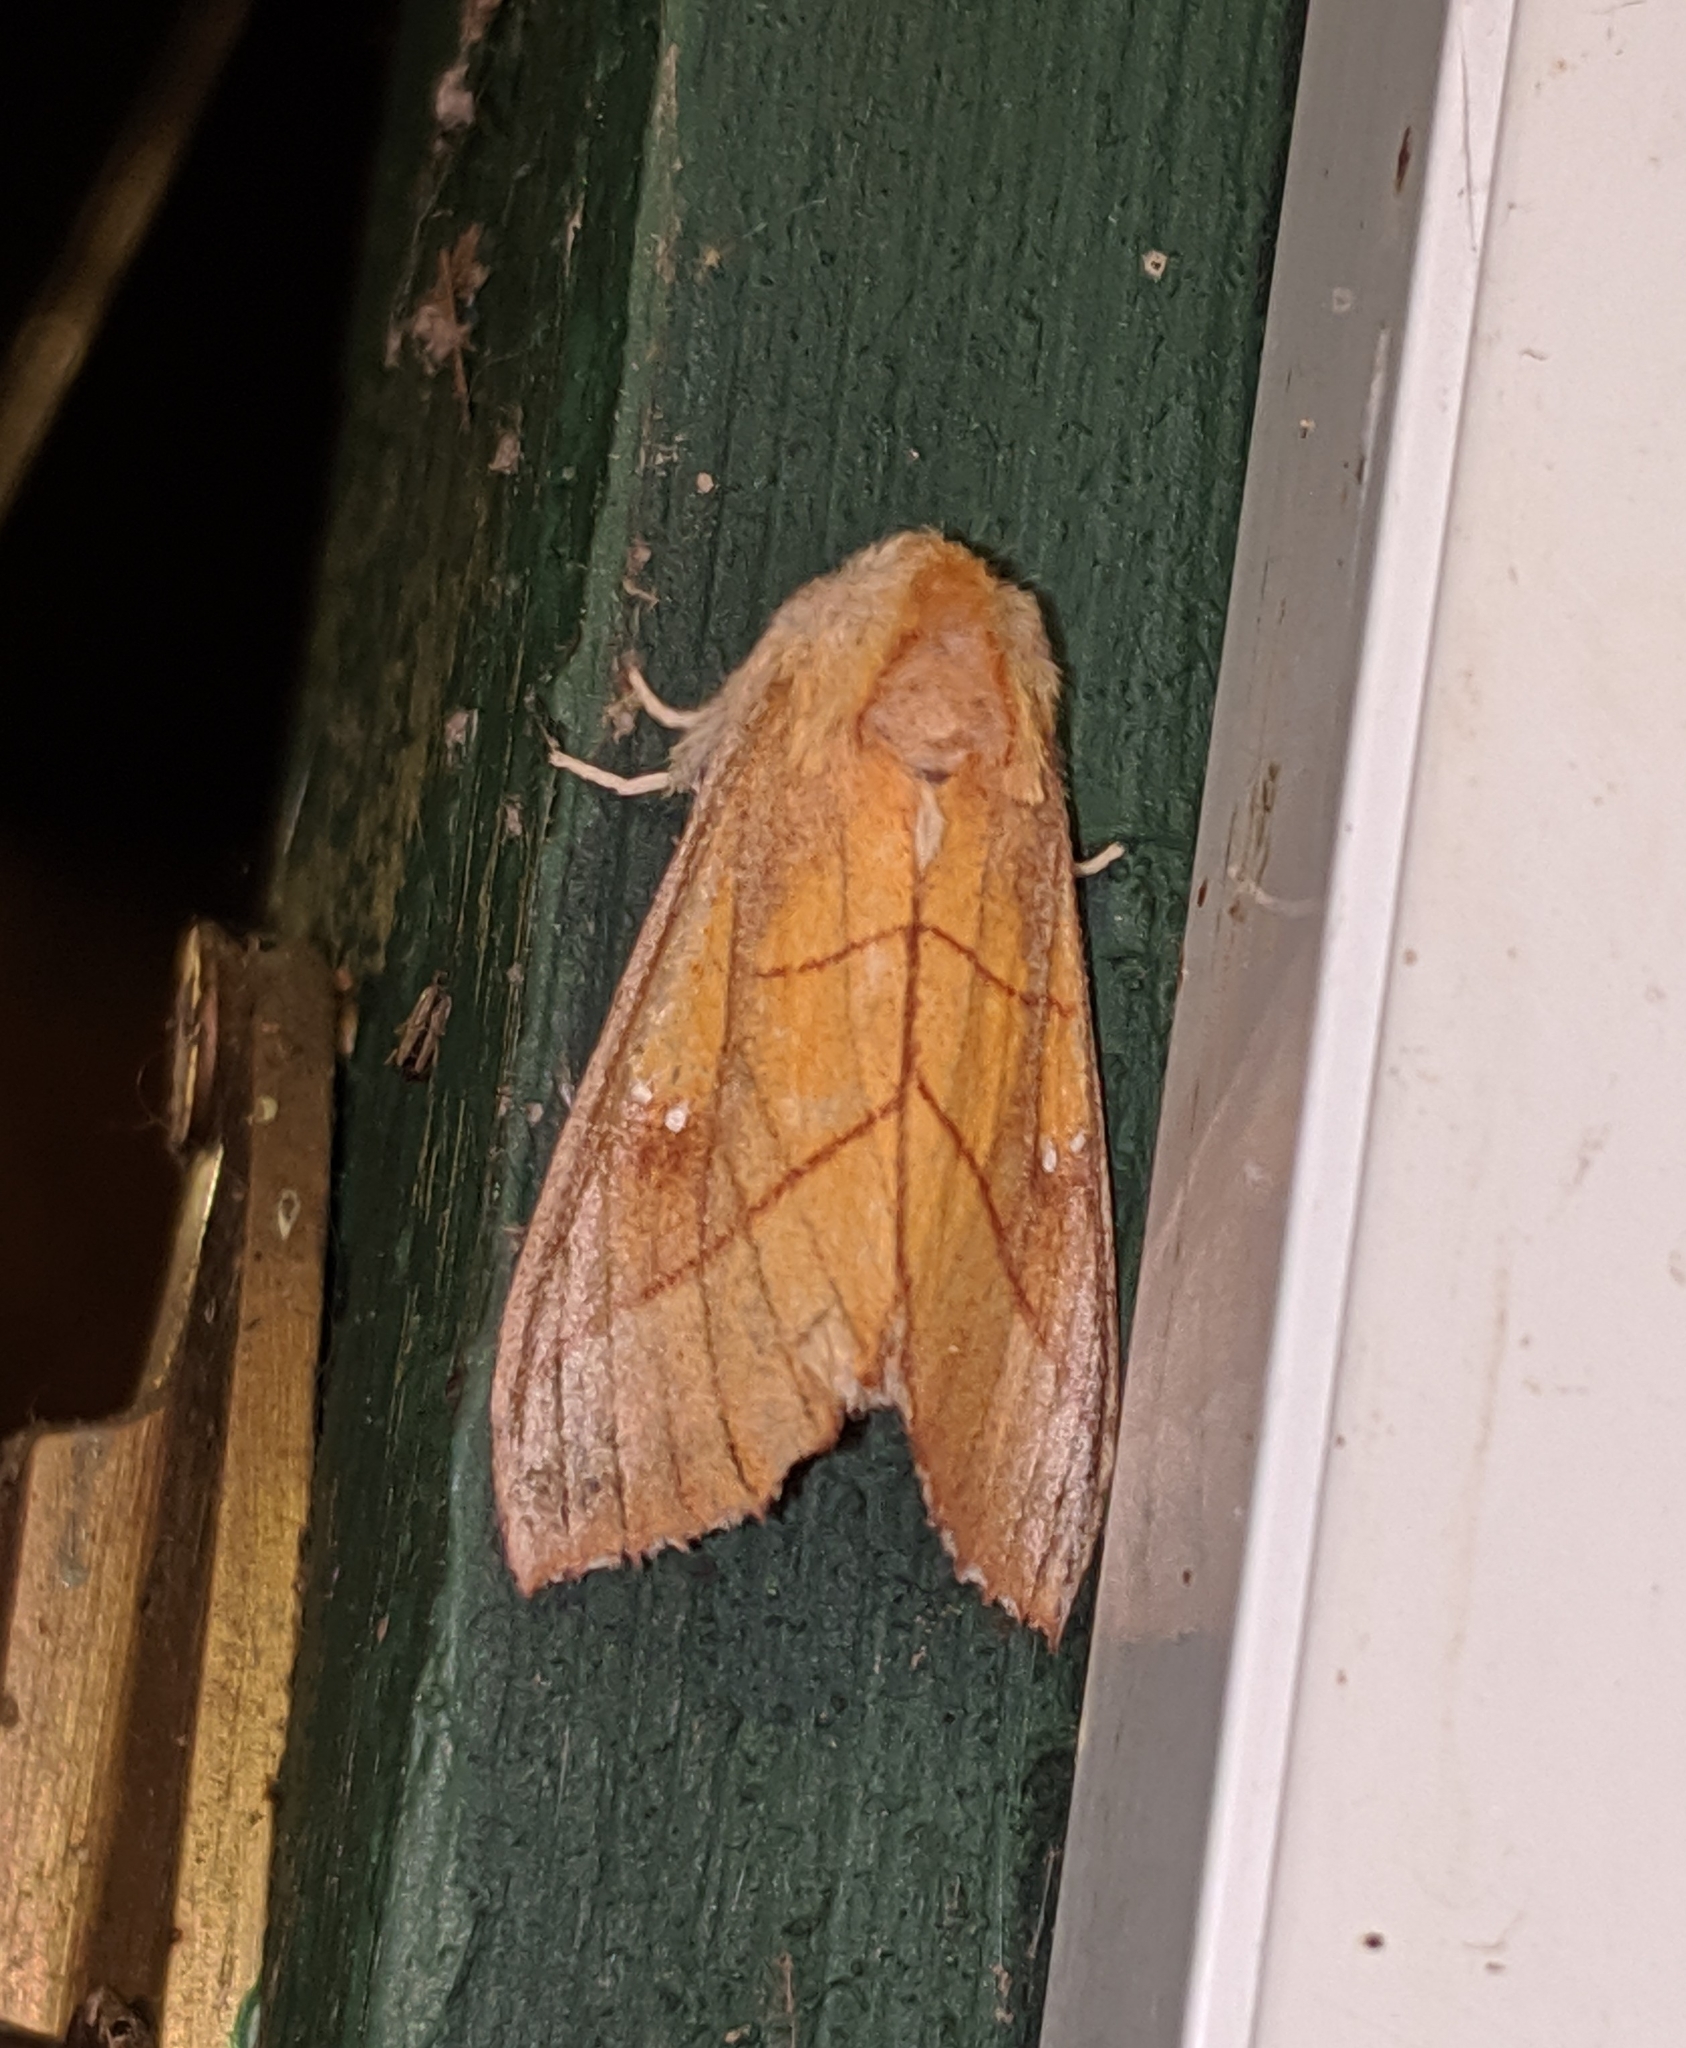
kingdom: Animalia
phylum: Arthropoda
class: Insecta
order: Lepidoptera
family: Notodontidae
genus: Nadata
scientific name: Nadata gibbosa
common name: White-dotted prominent
